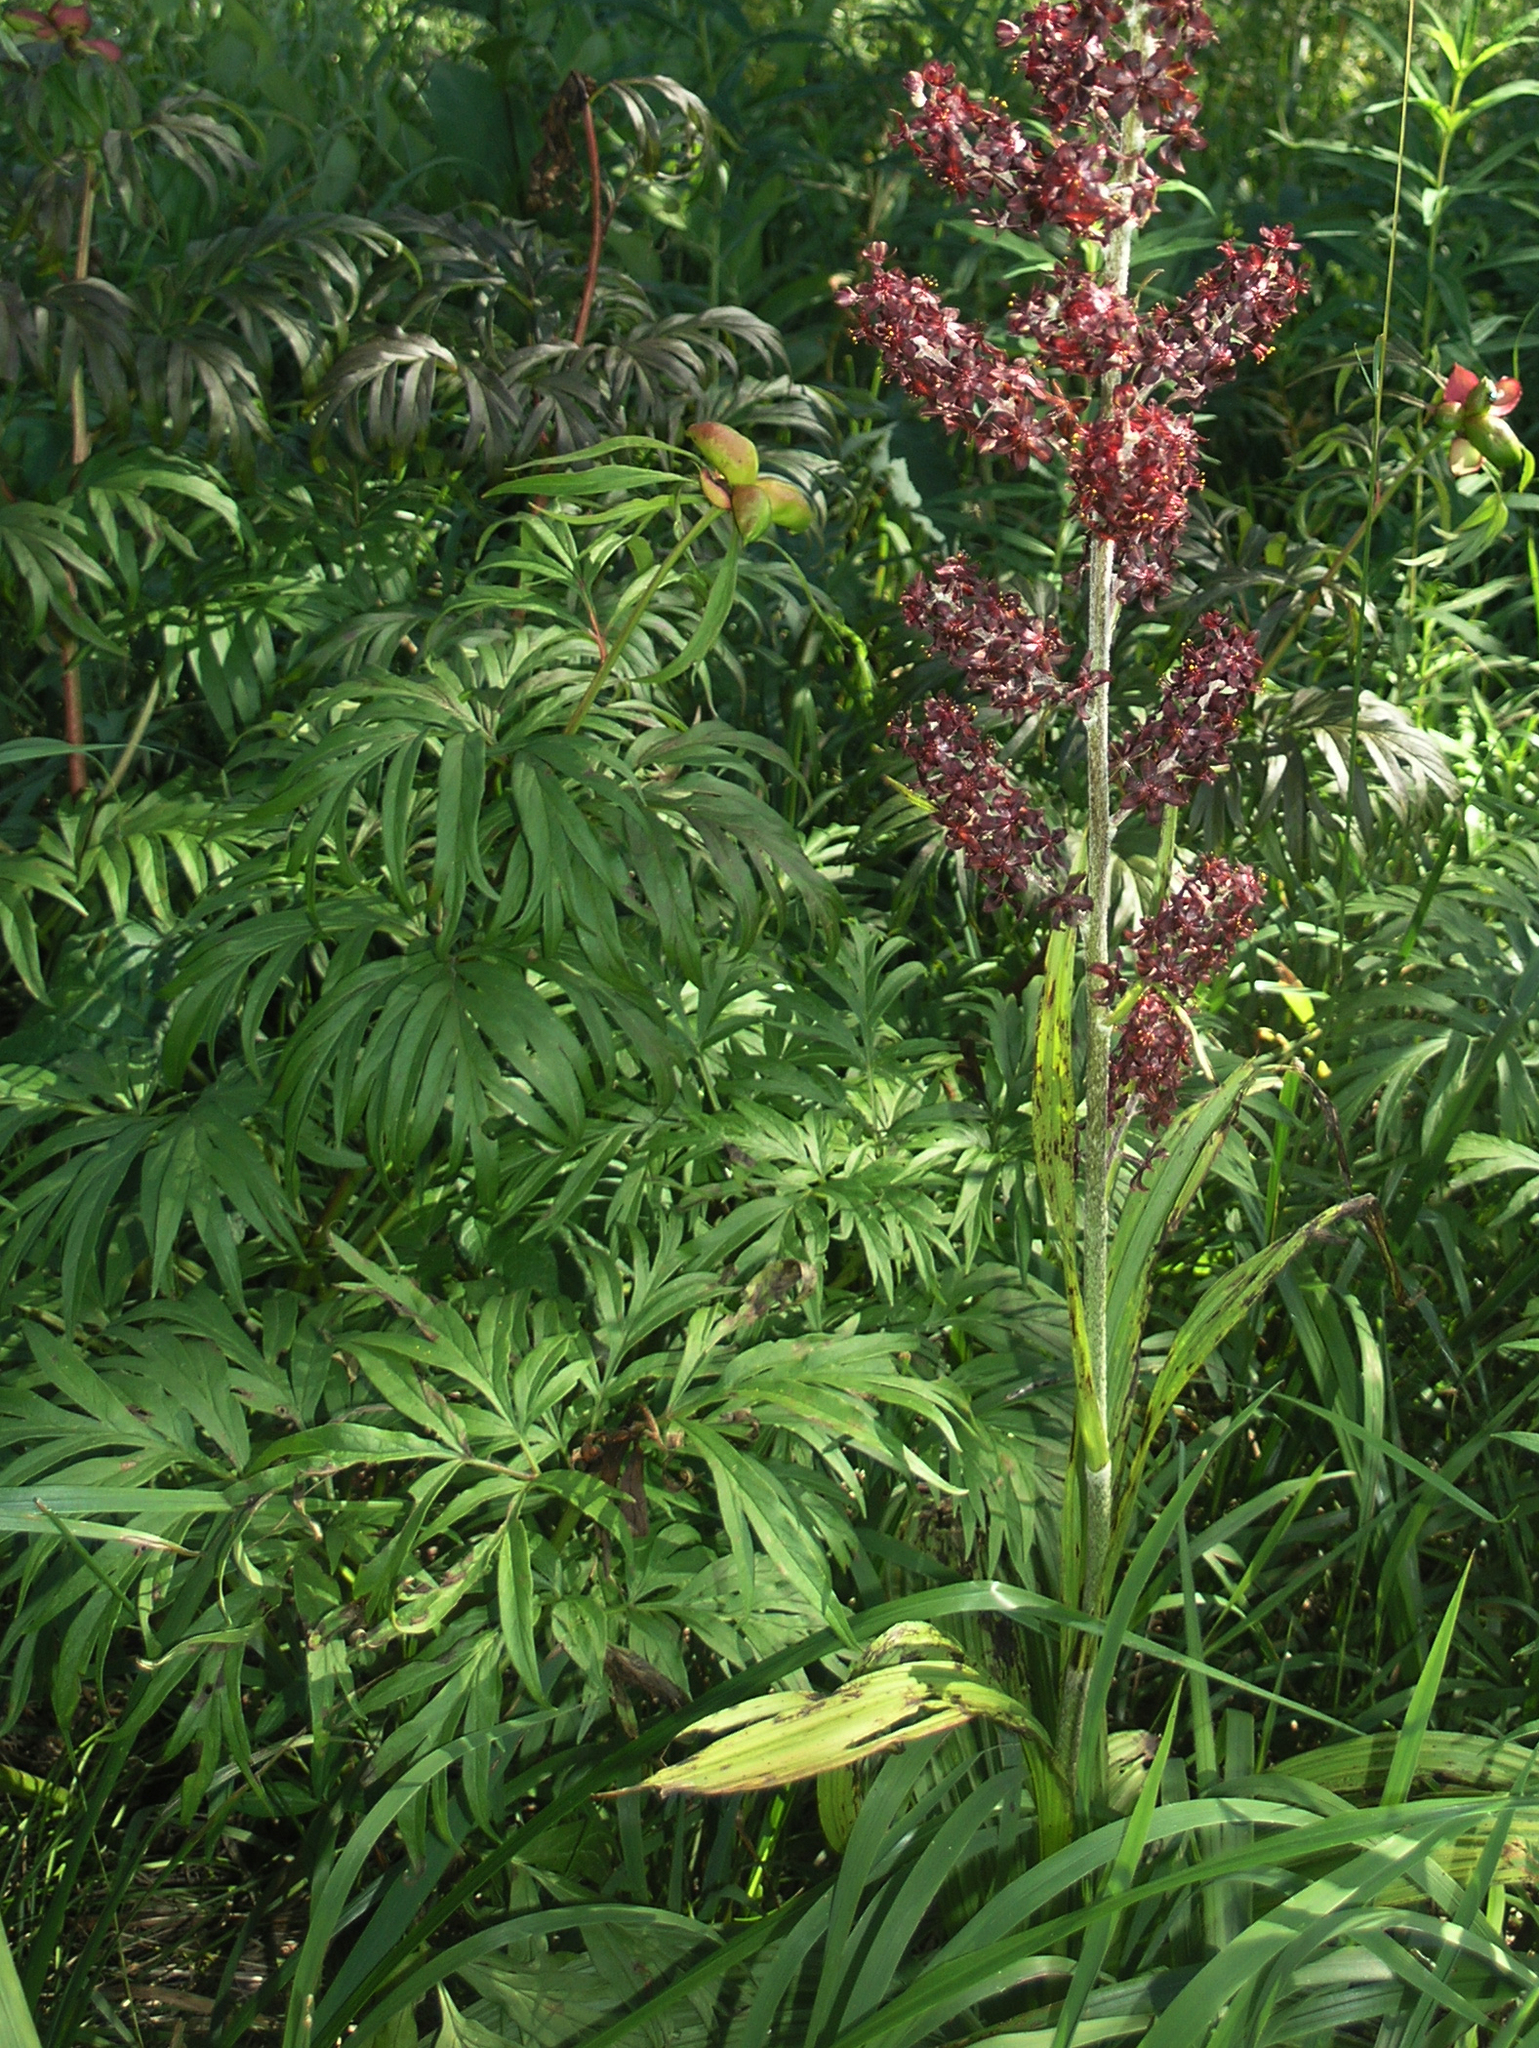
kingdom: Plantae
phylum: Tracheophyta
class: Magnoliopsida
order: Saxifragales
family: Paeoniaceae
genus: Paeonia
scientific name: Paeonia anomala
